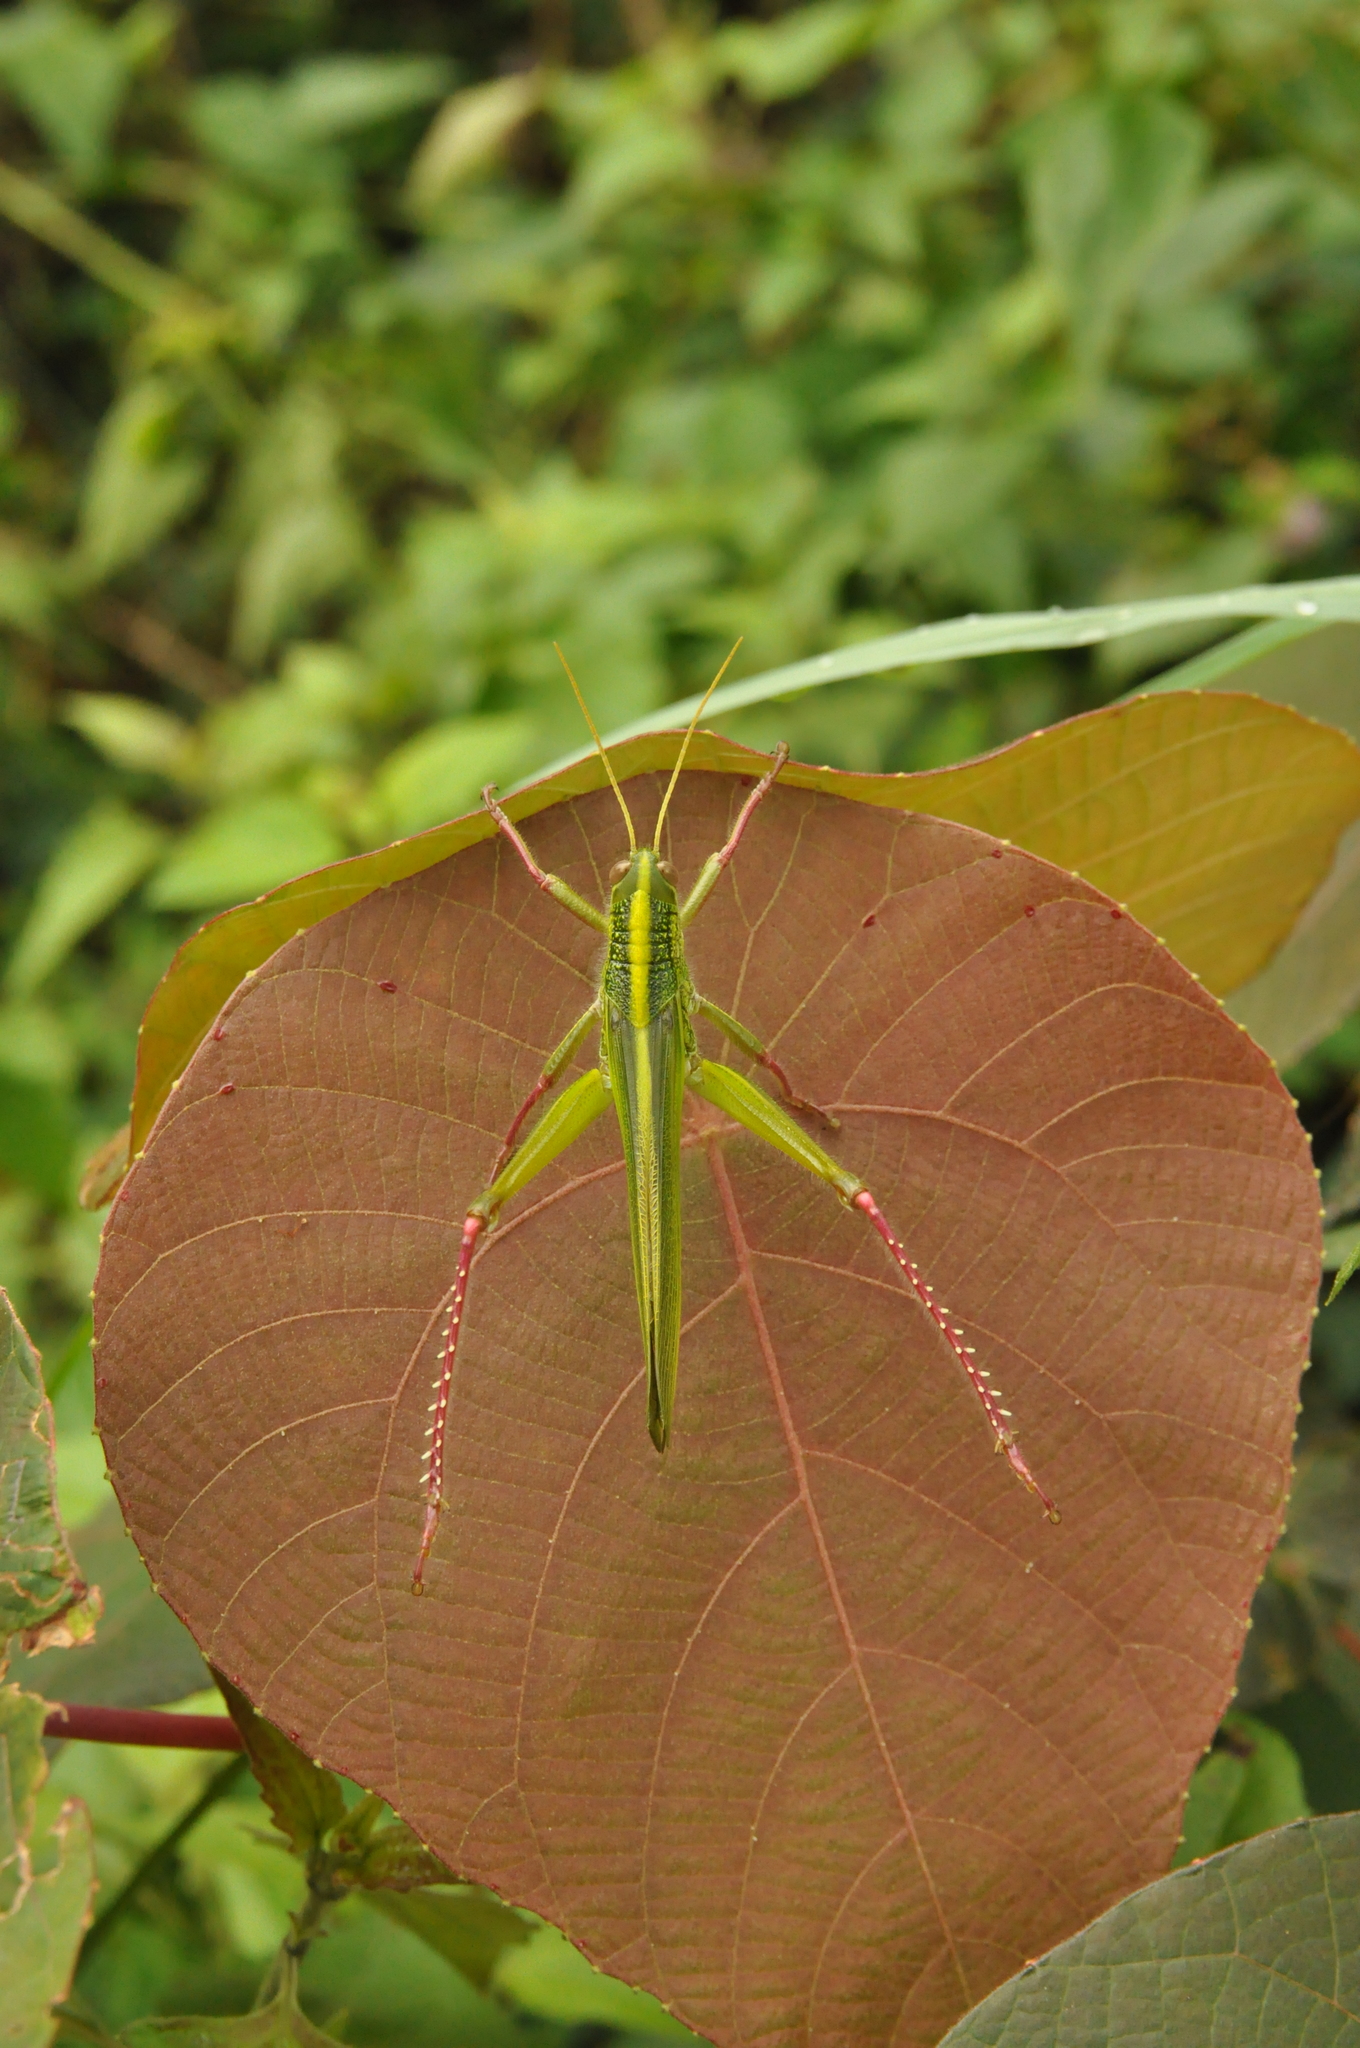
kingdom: Animalia
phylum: Arthropoda
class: Insecta
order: Orthoptera
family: Acrididae
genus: Chondracris
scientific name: Chondracris bengalensis
